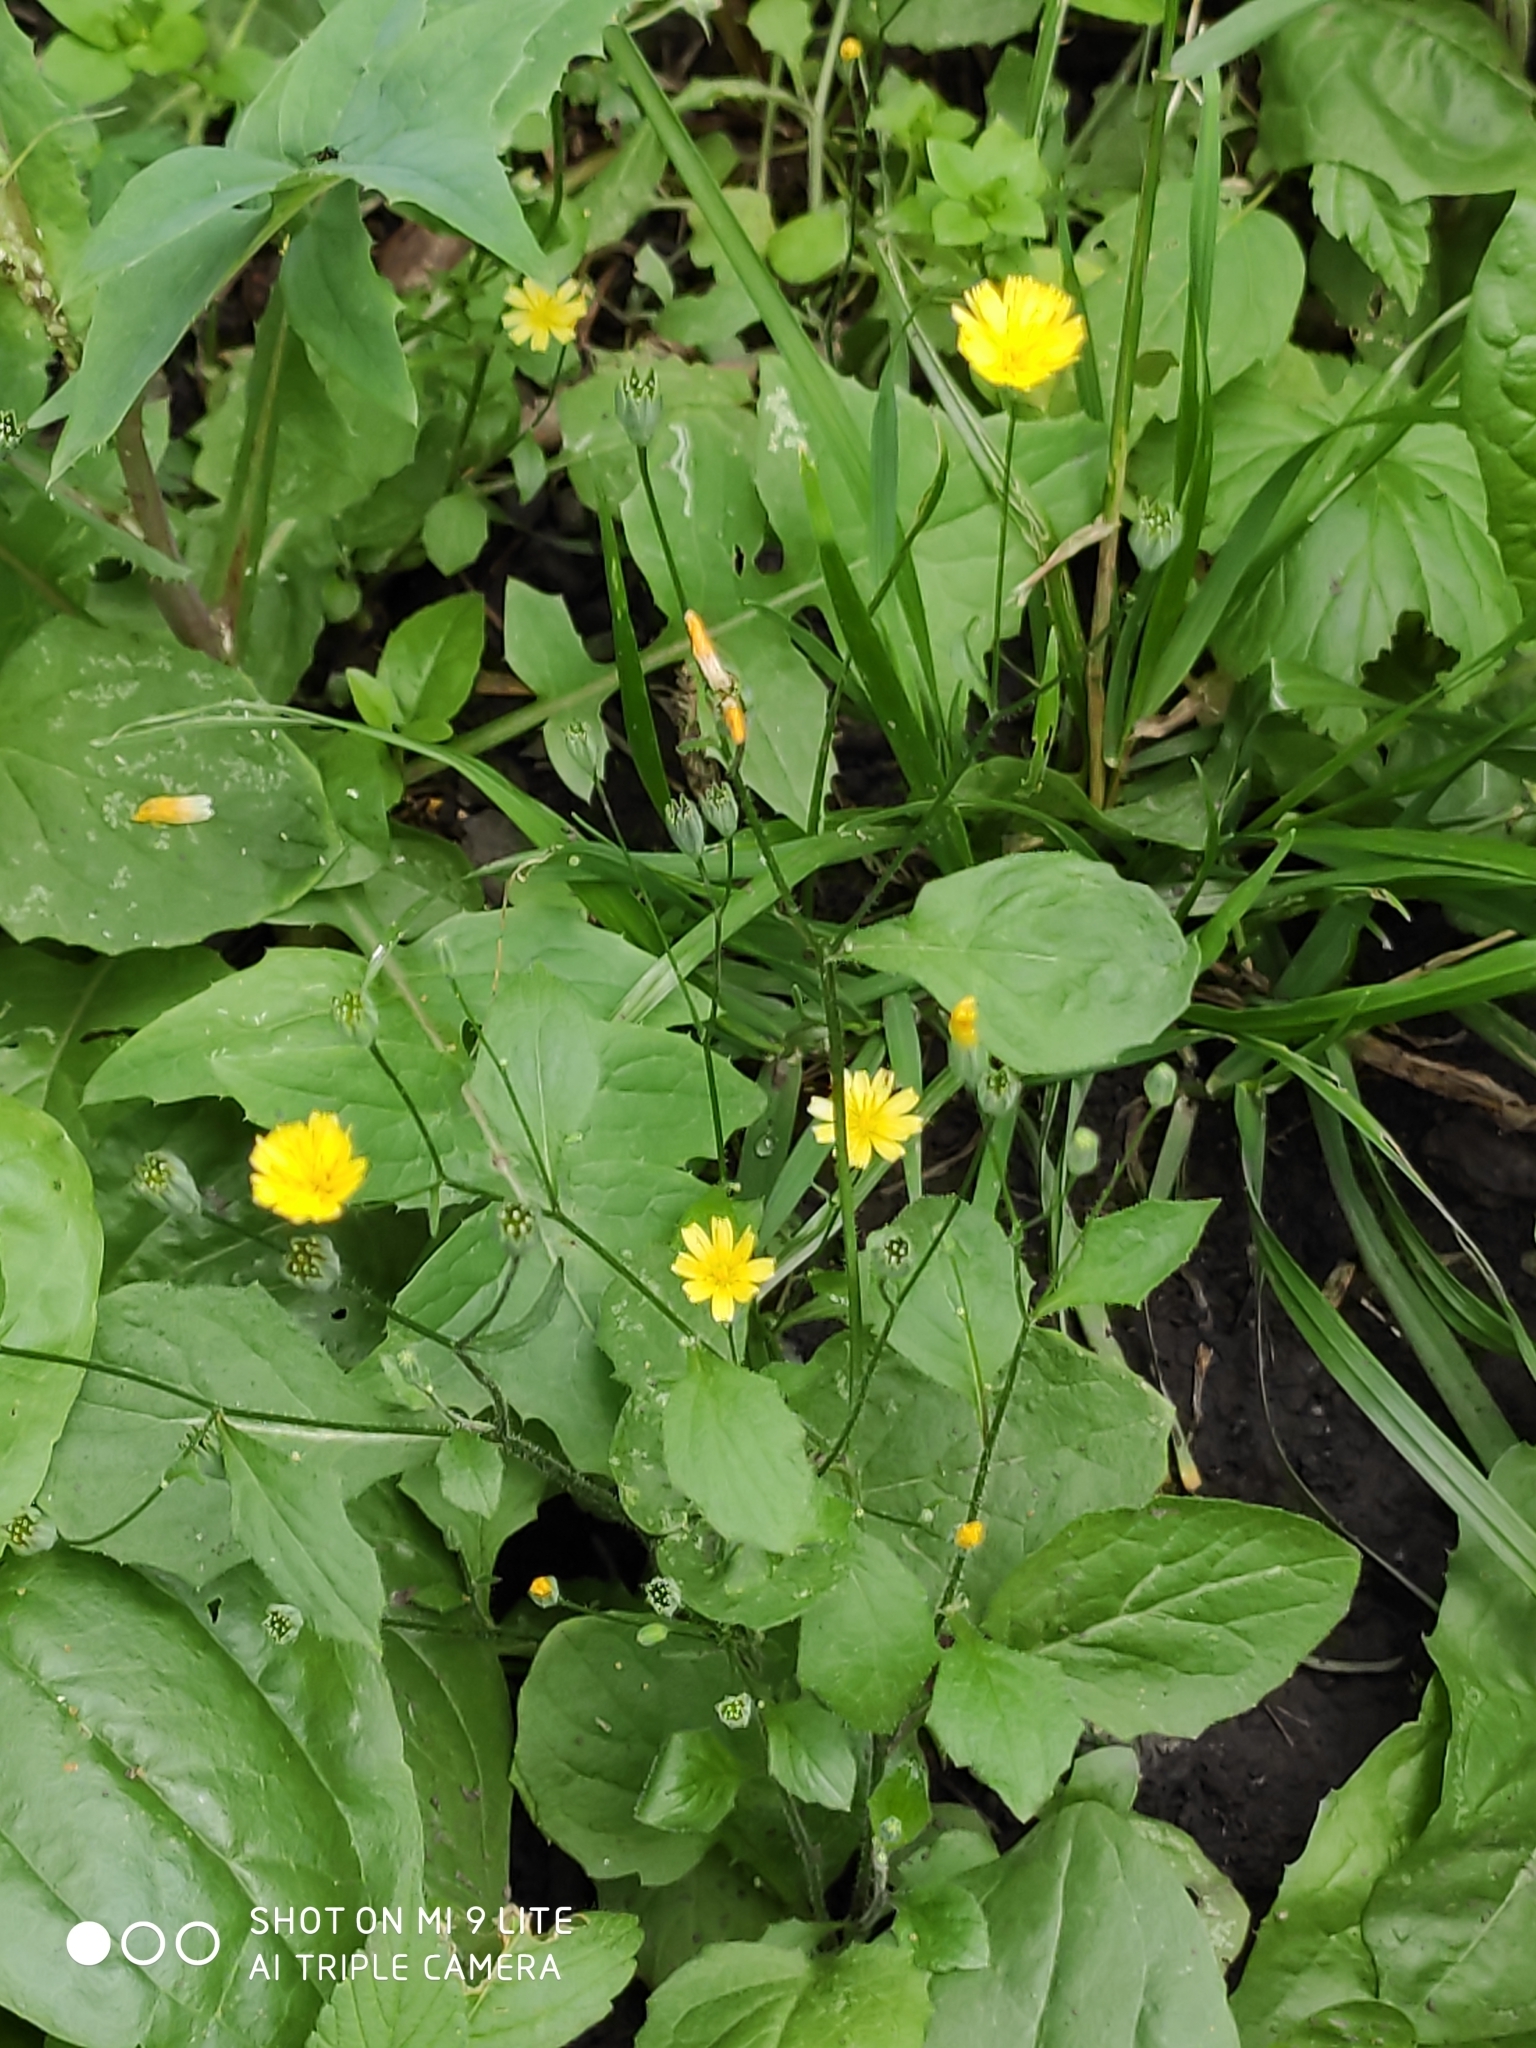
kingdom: Plantae
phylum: Tracheophyta
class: Magnoliopsida
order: Asterales
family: Asteraceae
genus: Lapsana
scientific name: Lapsana communis
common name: Nipplewort
